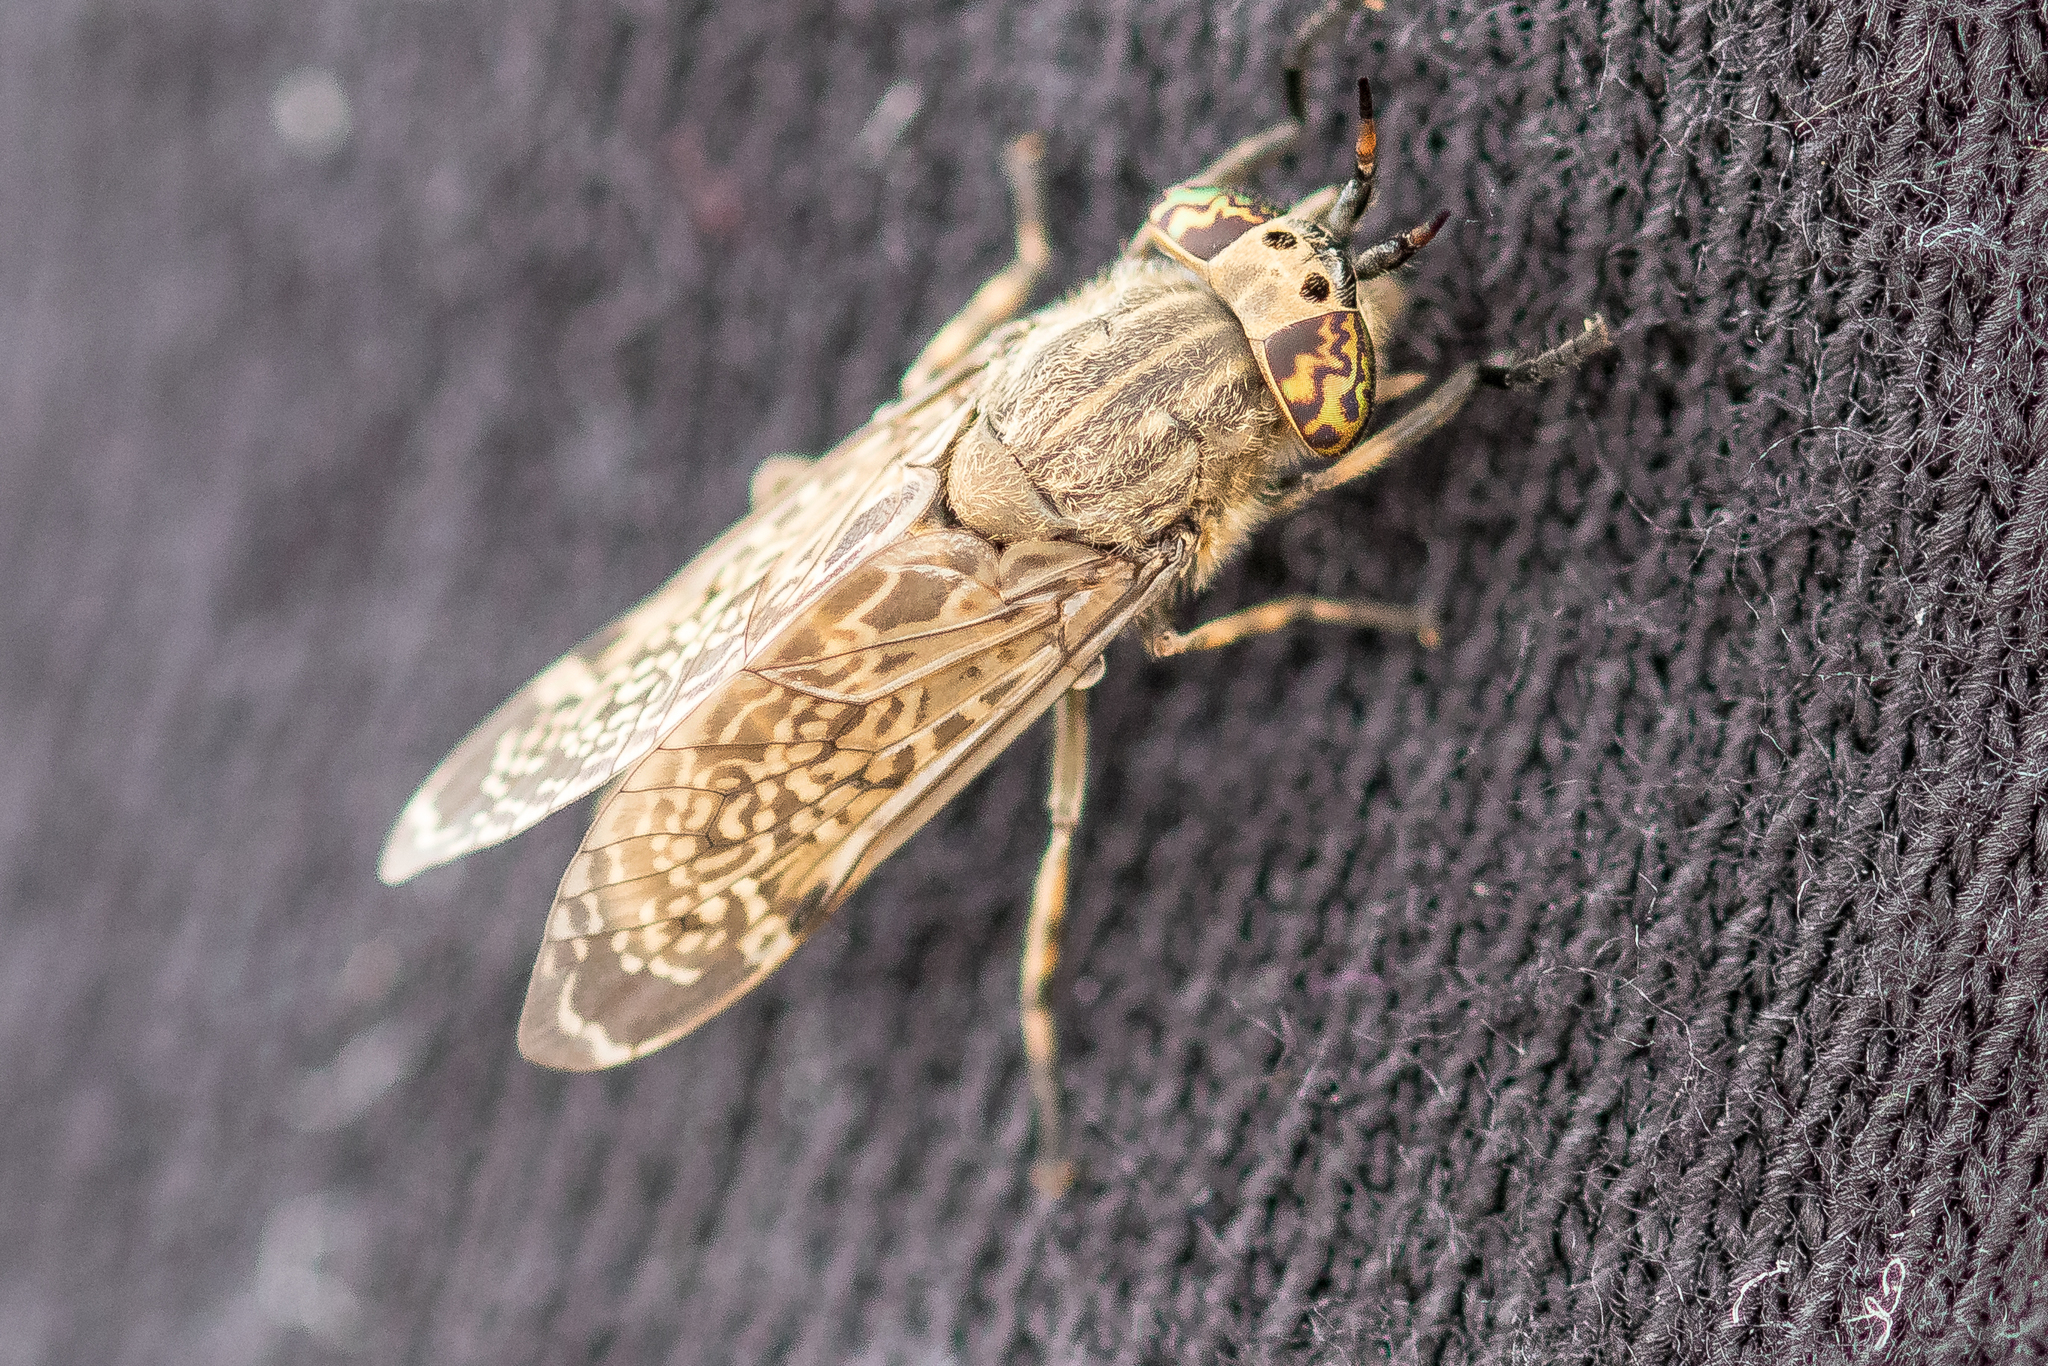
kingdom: Animalia
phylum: Arthropoda
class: Insecta
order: Diptera
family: Tabanidae
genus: Haematopota
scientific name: Haematopota pluvialis
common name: Common horse fly
